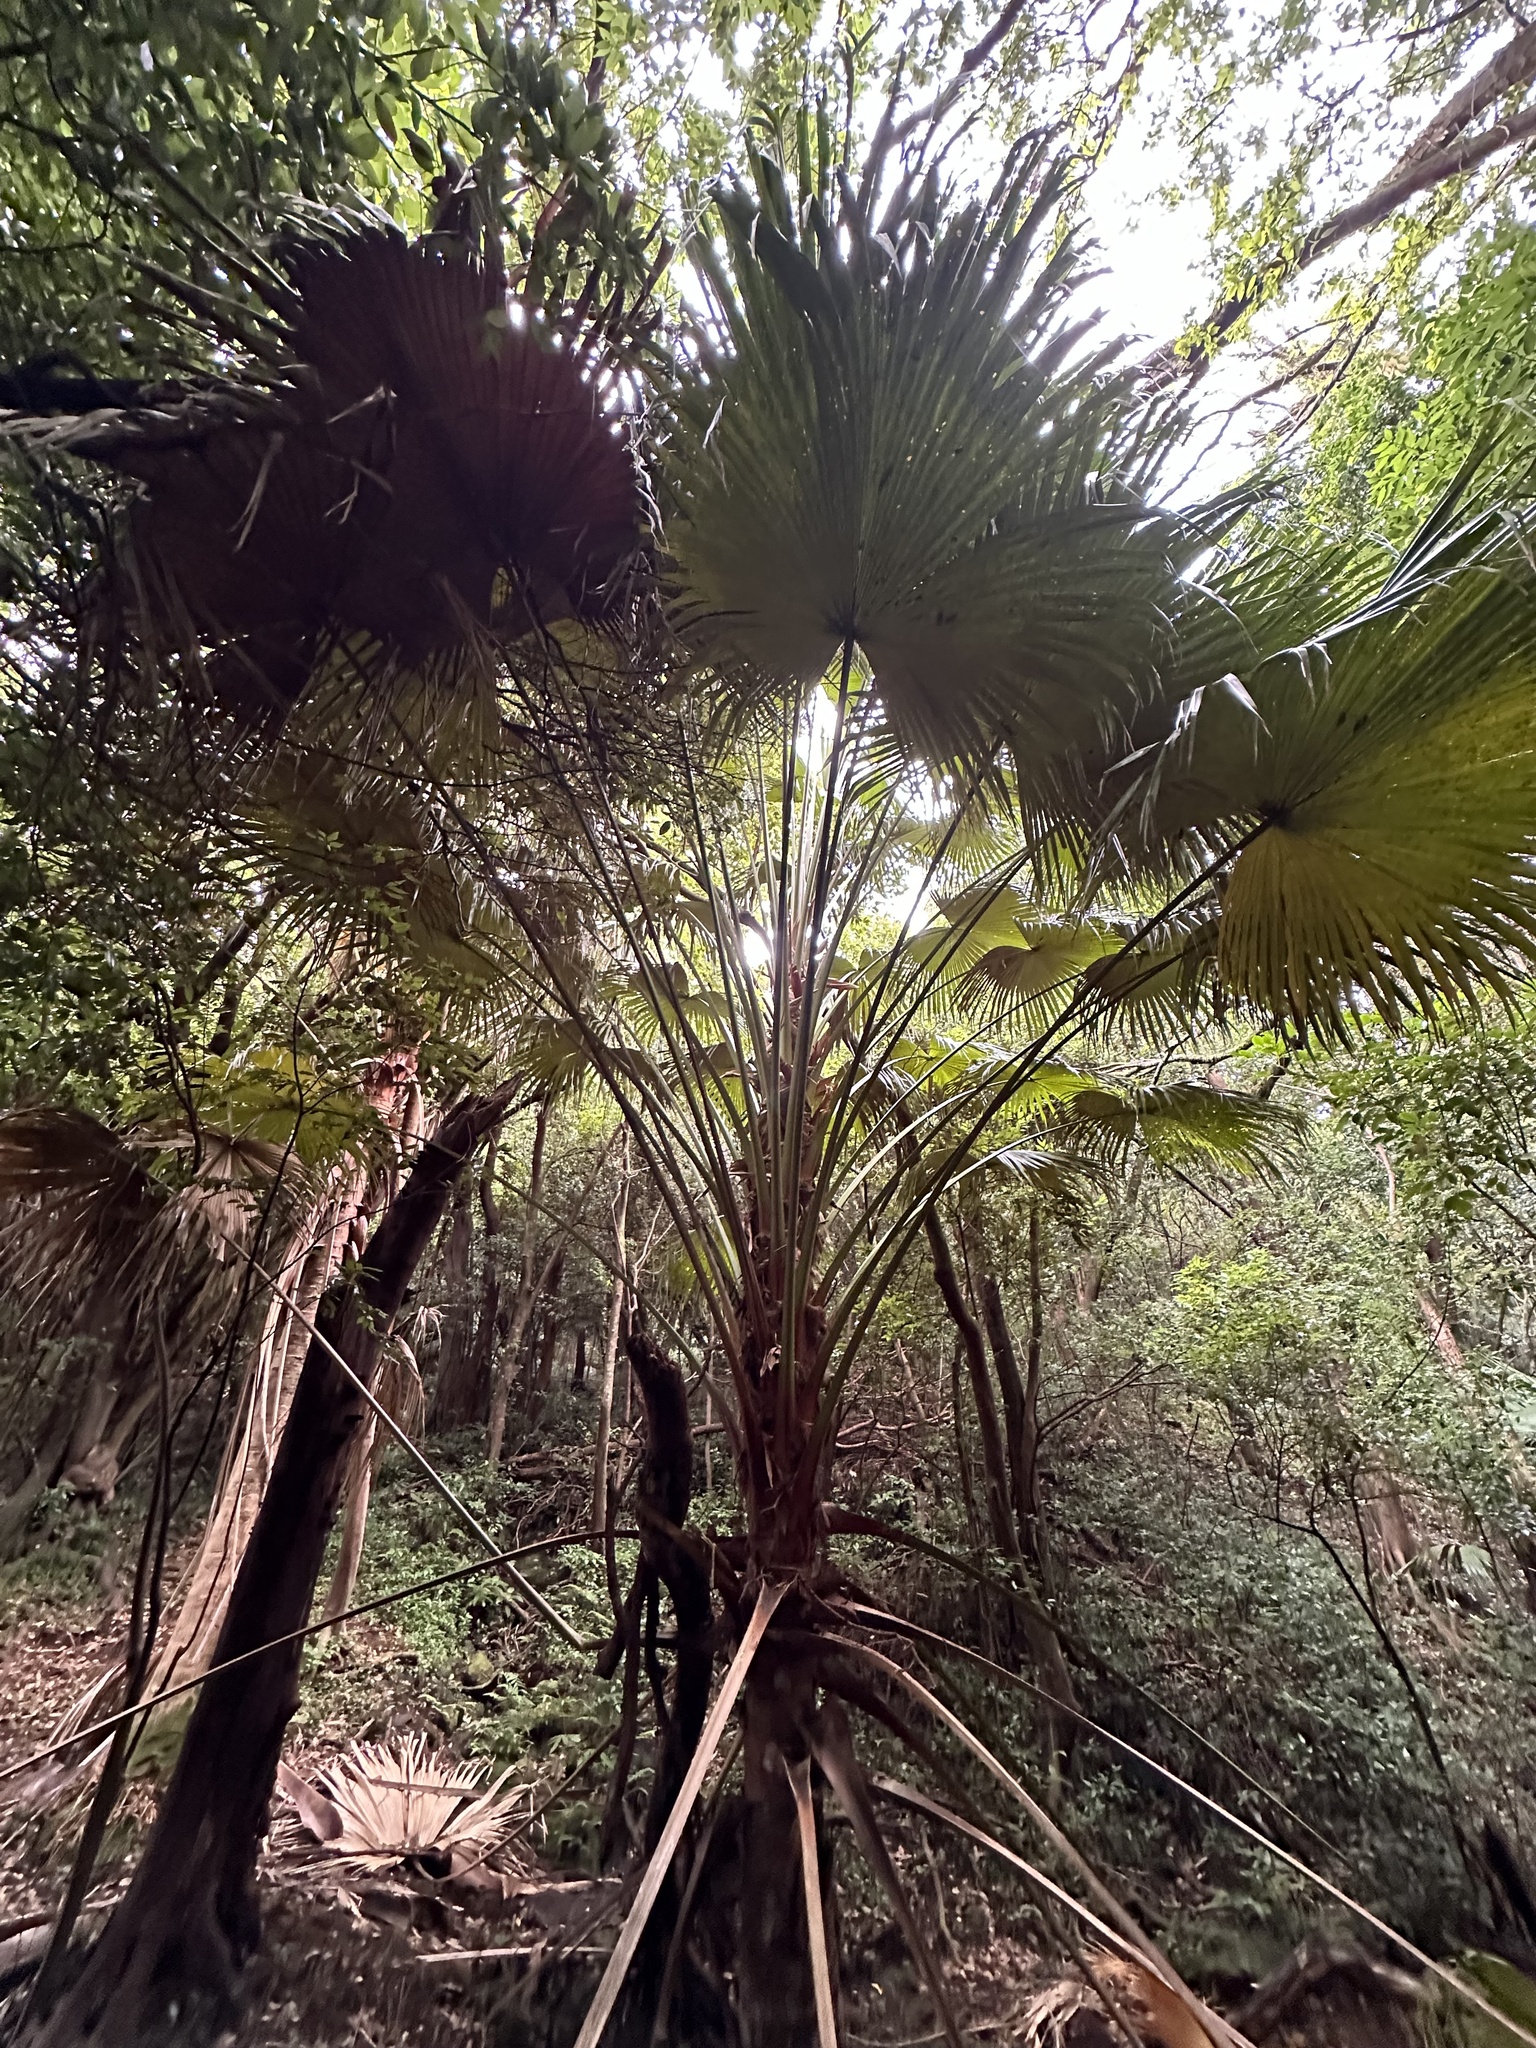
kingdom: Plantae
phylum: Tracheophyta
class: Liliopsida
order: Arecales
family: Arecaceae
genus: Livistona
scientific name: Livistona chinensis
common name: Fountain palm
